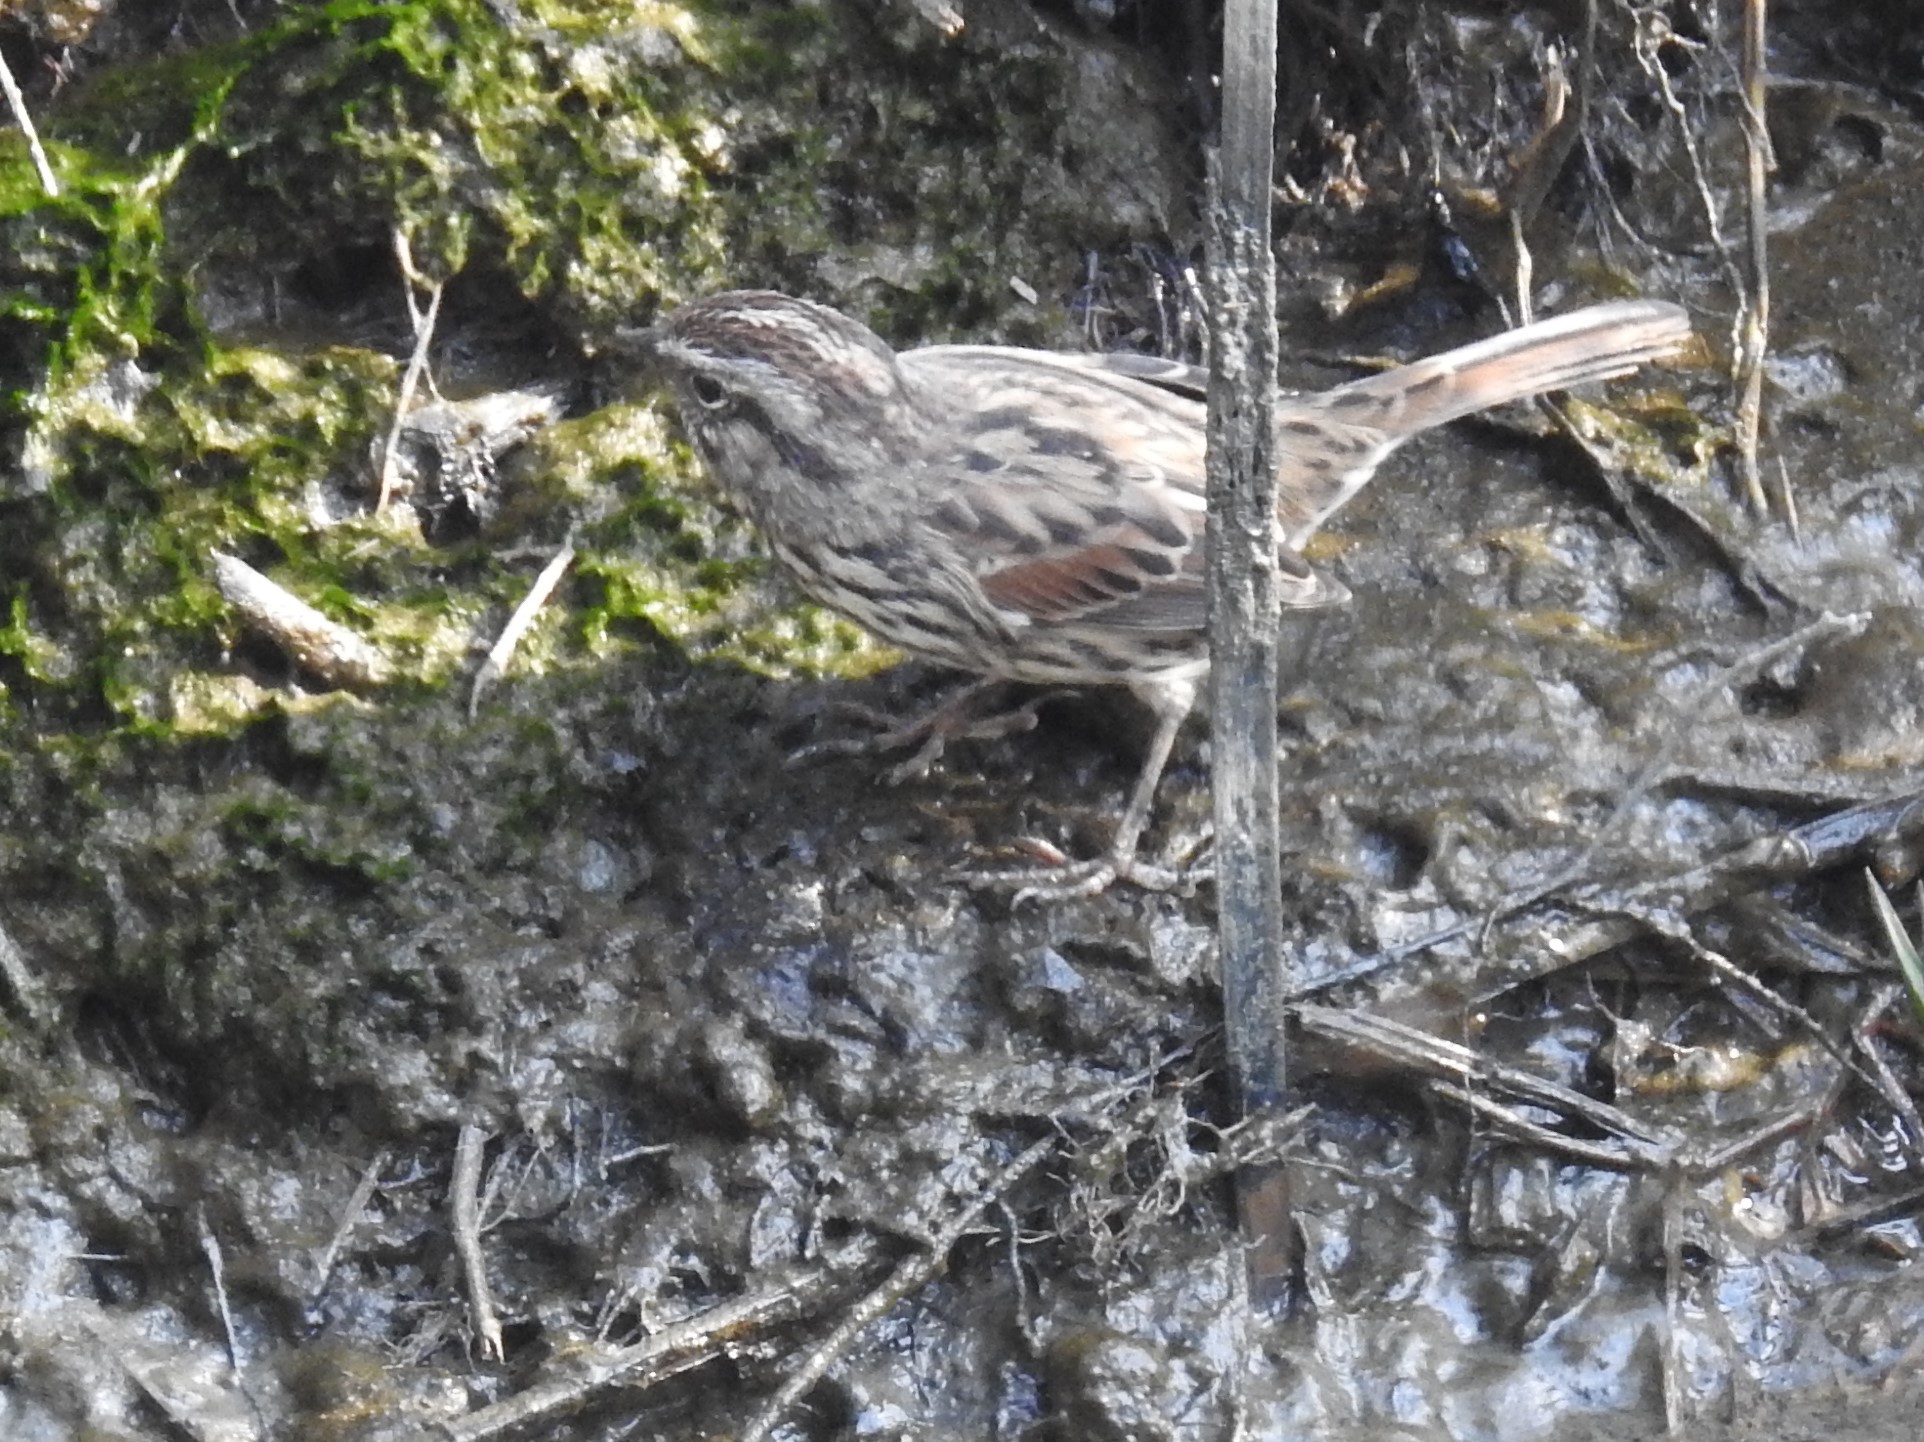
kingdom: Animalia
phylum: Chordata
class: Aves
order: Passeriformes
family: Passerellidae
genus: Melospiza
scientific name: Melospiza melodia
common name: Song sparrow
